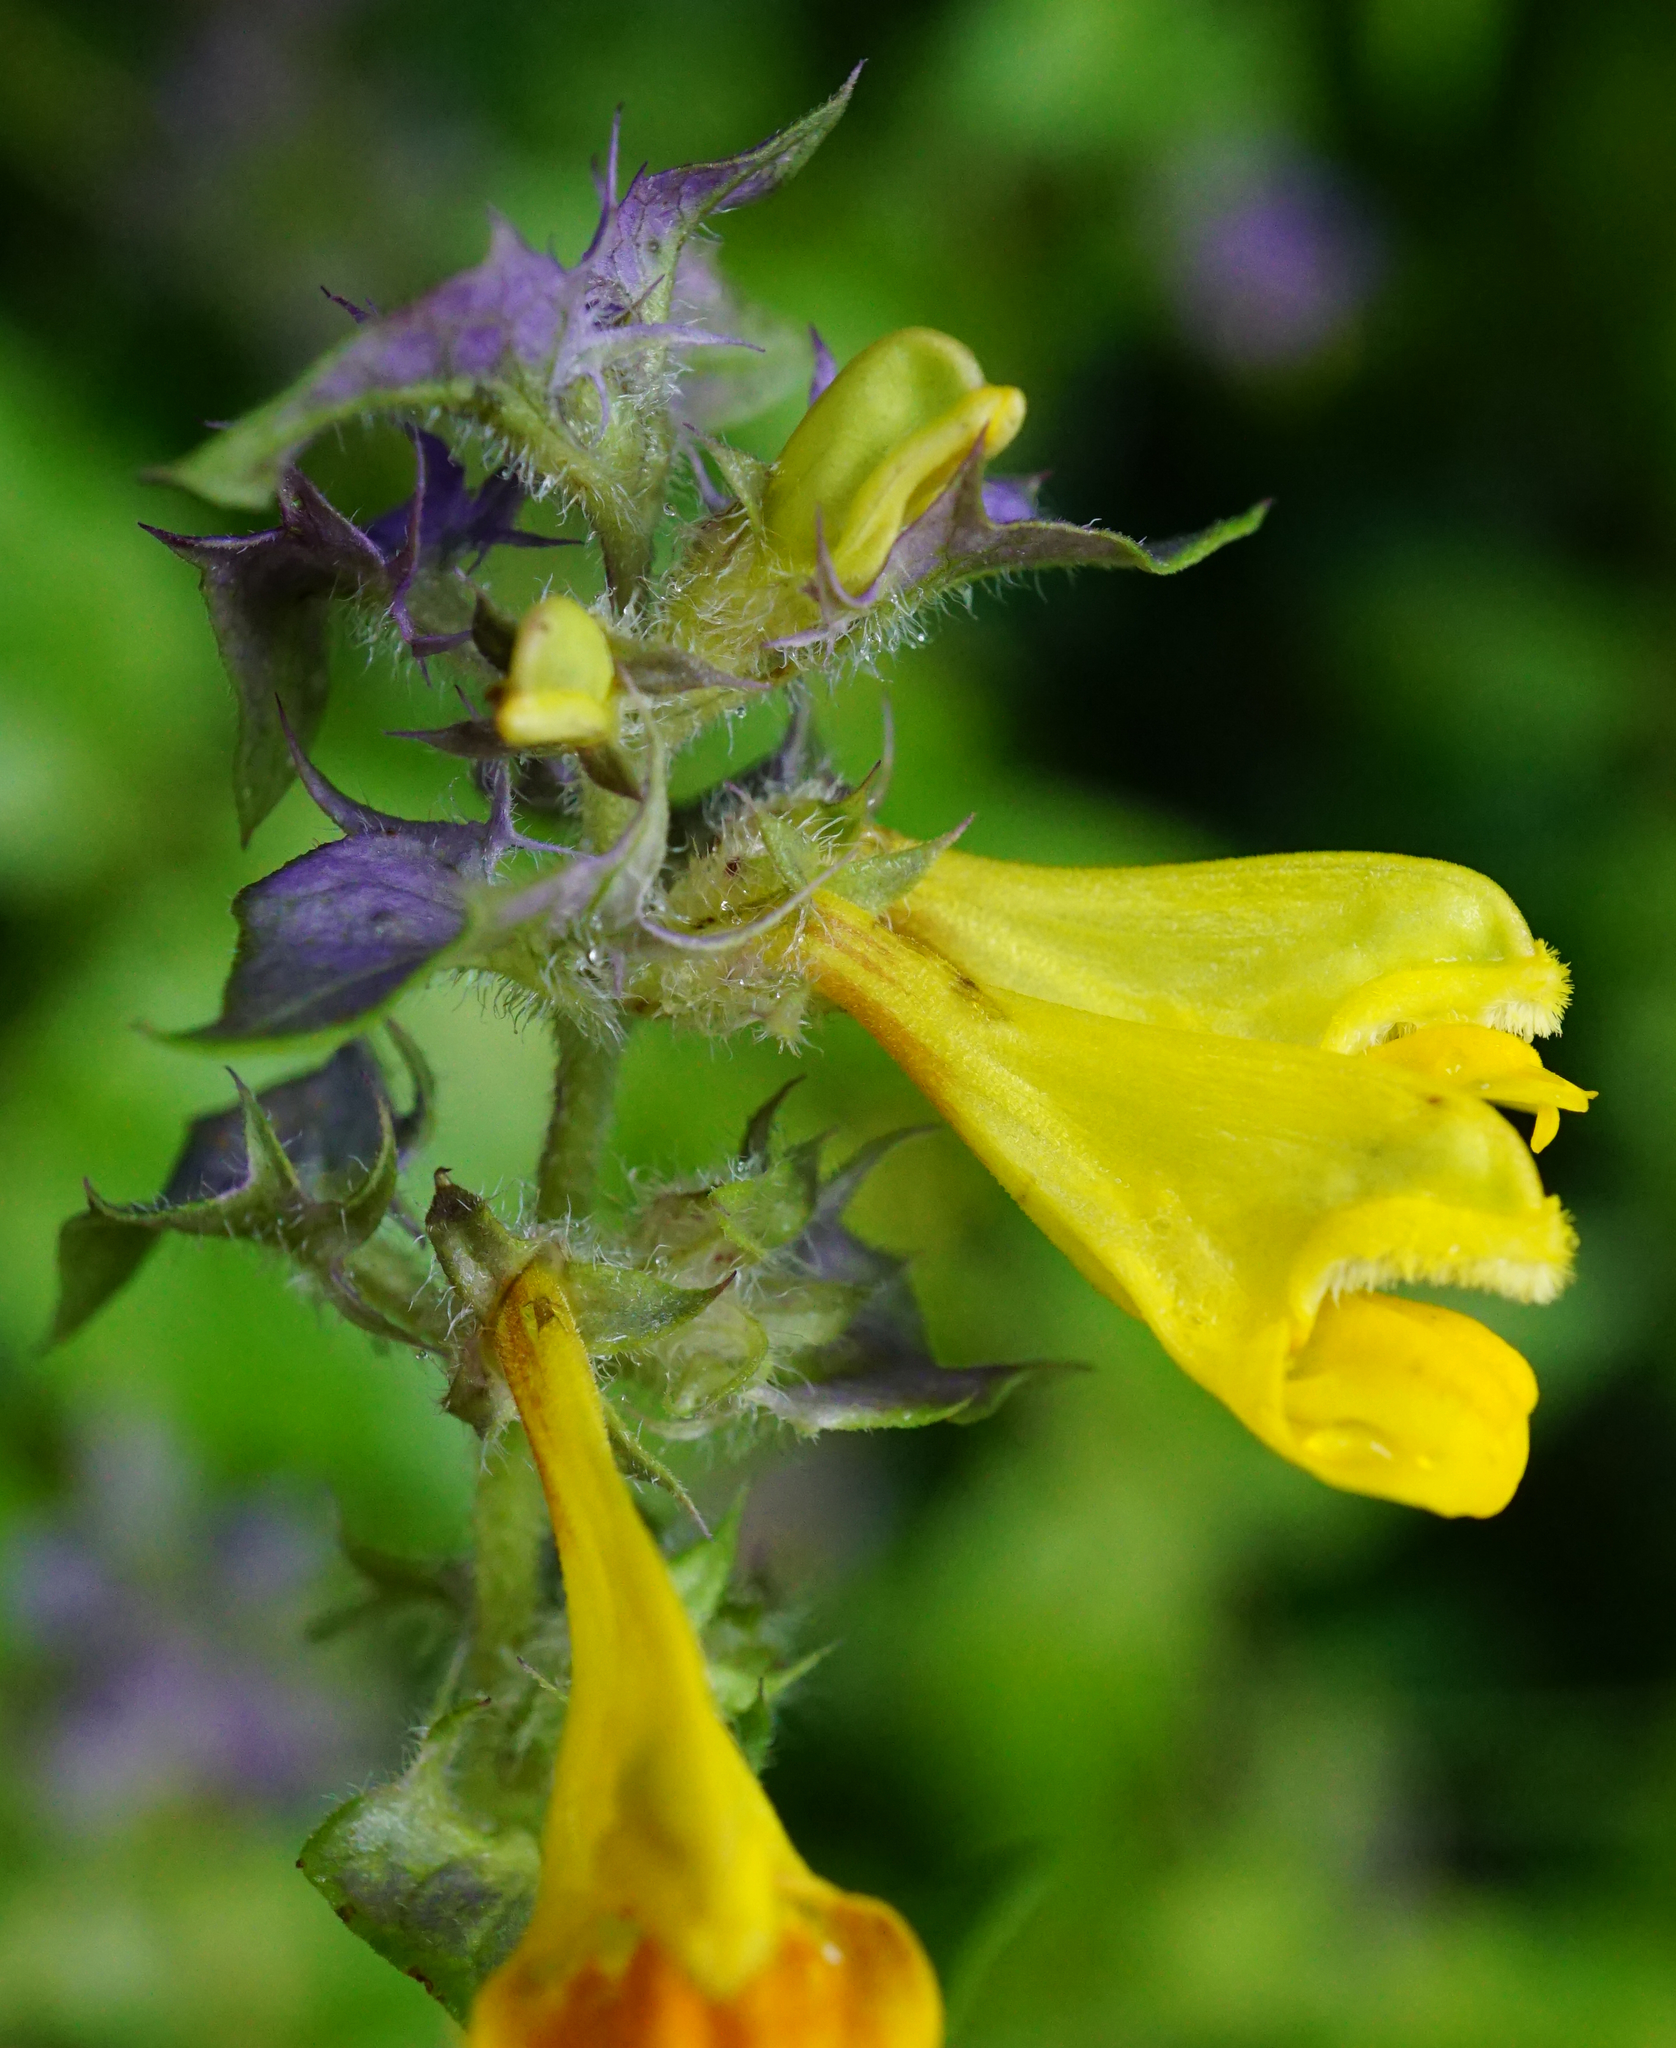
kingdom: Plantae
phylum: Tracheophyta
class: Magnoliopsida
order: Lamiales
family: Orobanchaceae
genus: Melampyrum
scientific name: Melampyrum nemorosum
